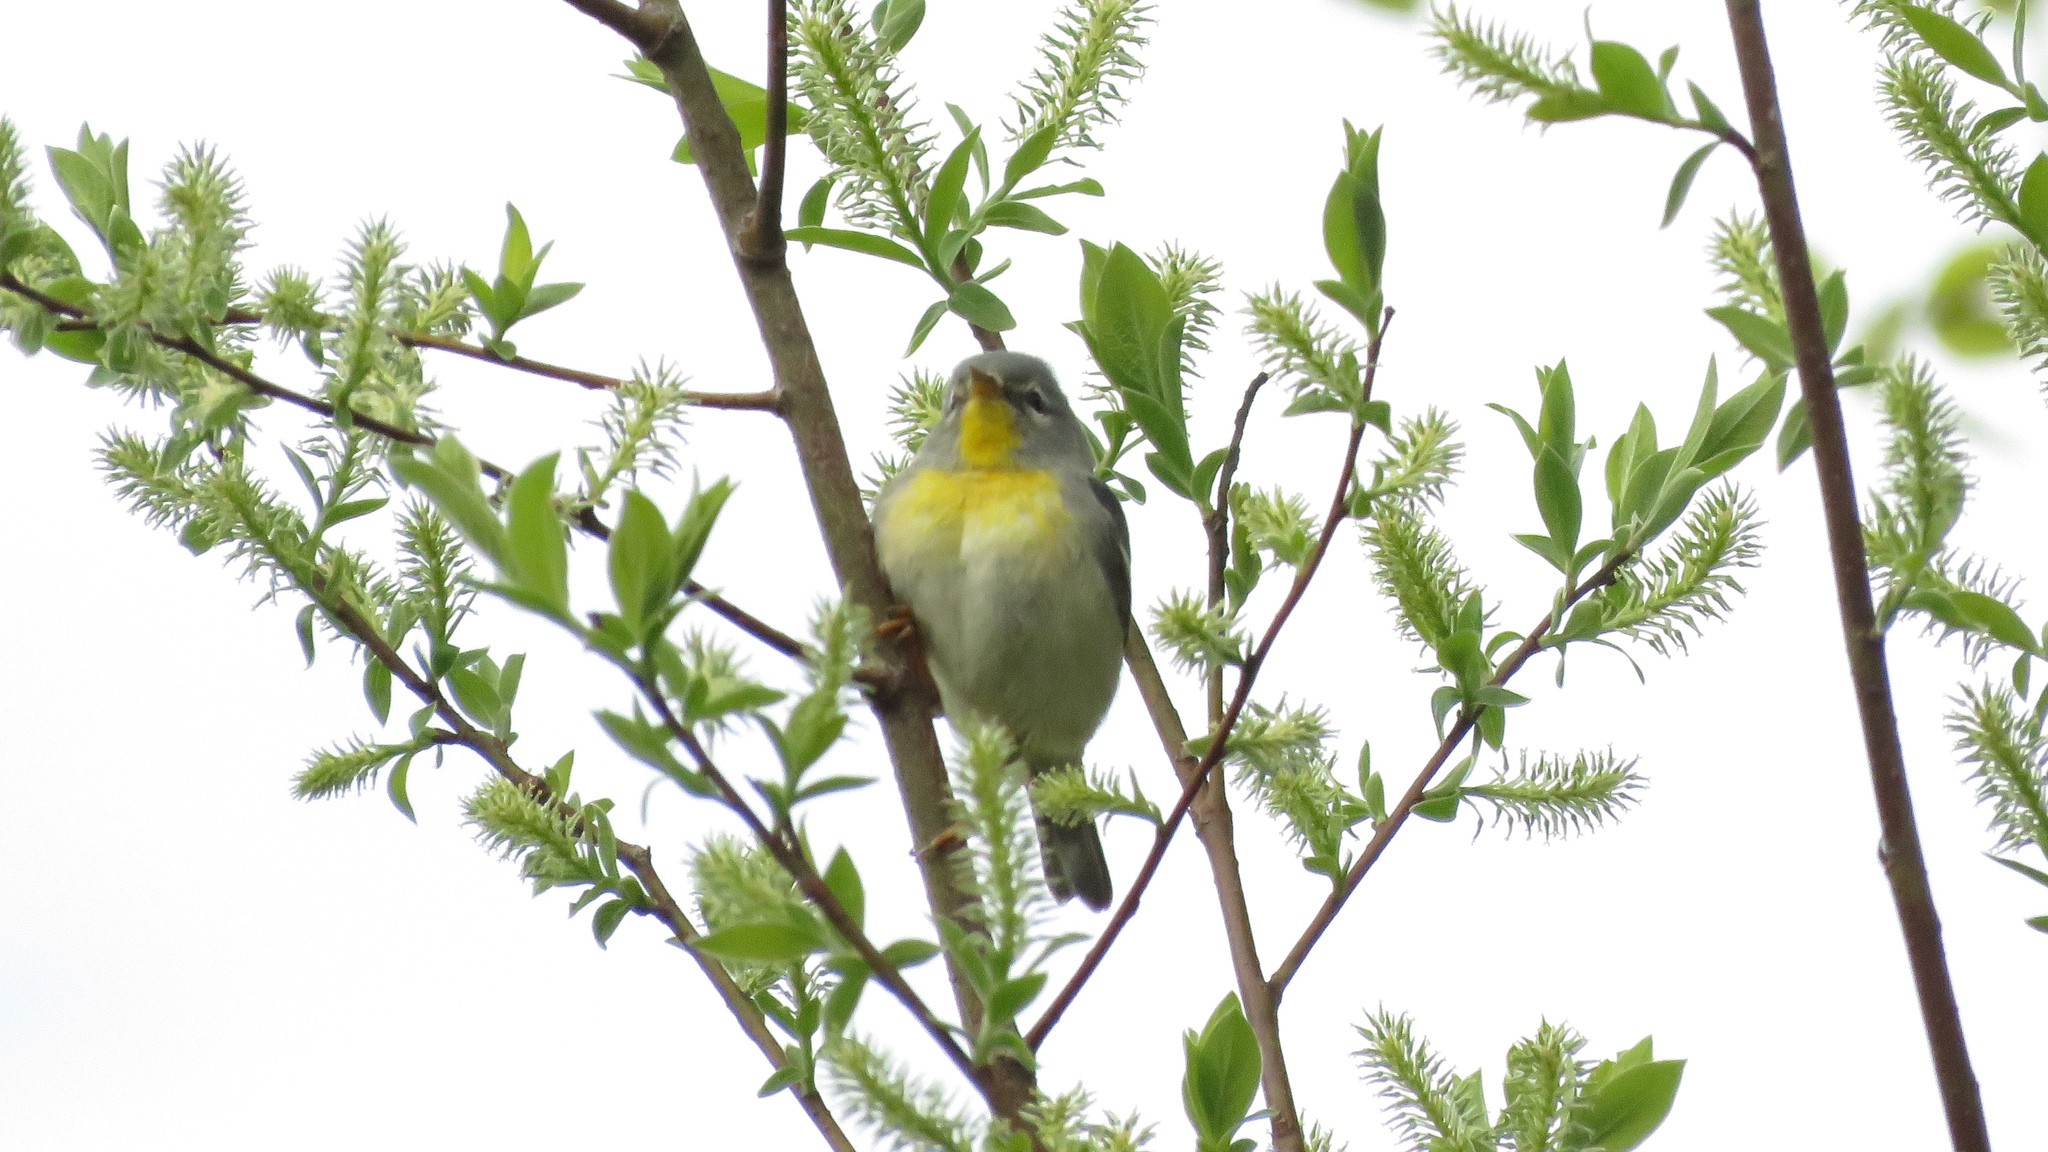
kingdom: Animalia
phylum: Chordata
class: Aves
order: Passeriformes
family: Parulidae
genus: Setophaga
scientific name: Setophaga americana
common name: Northern parula
